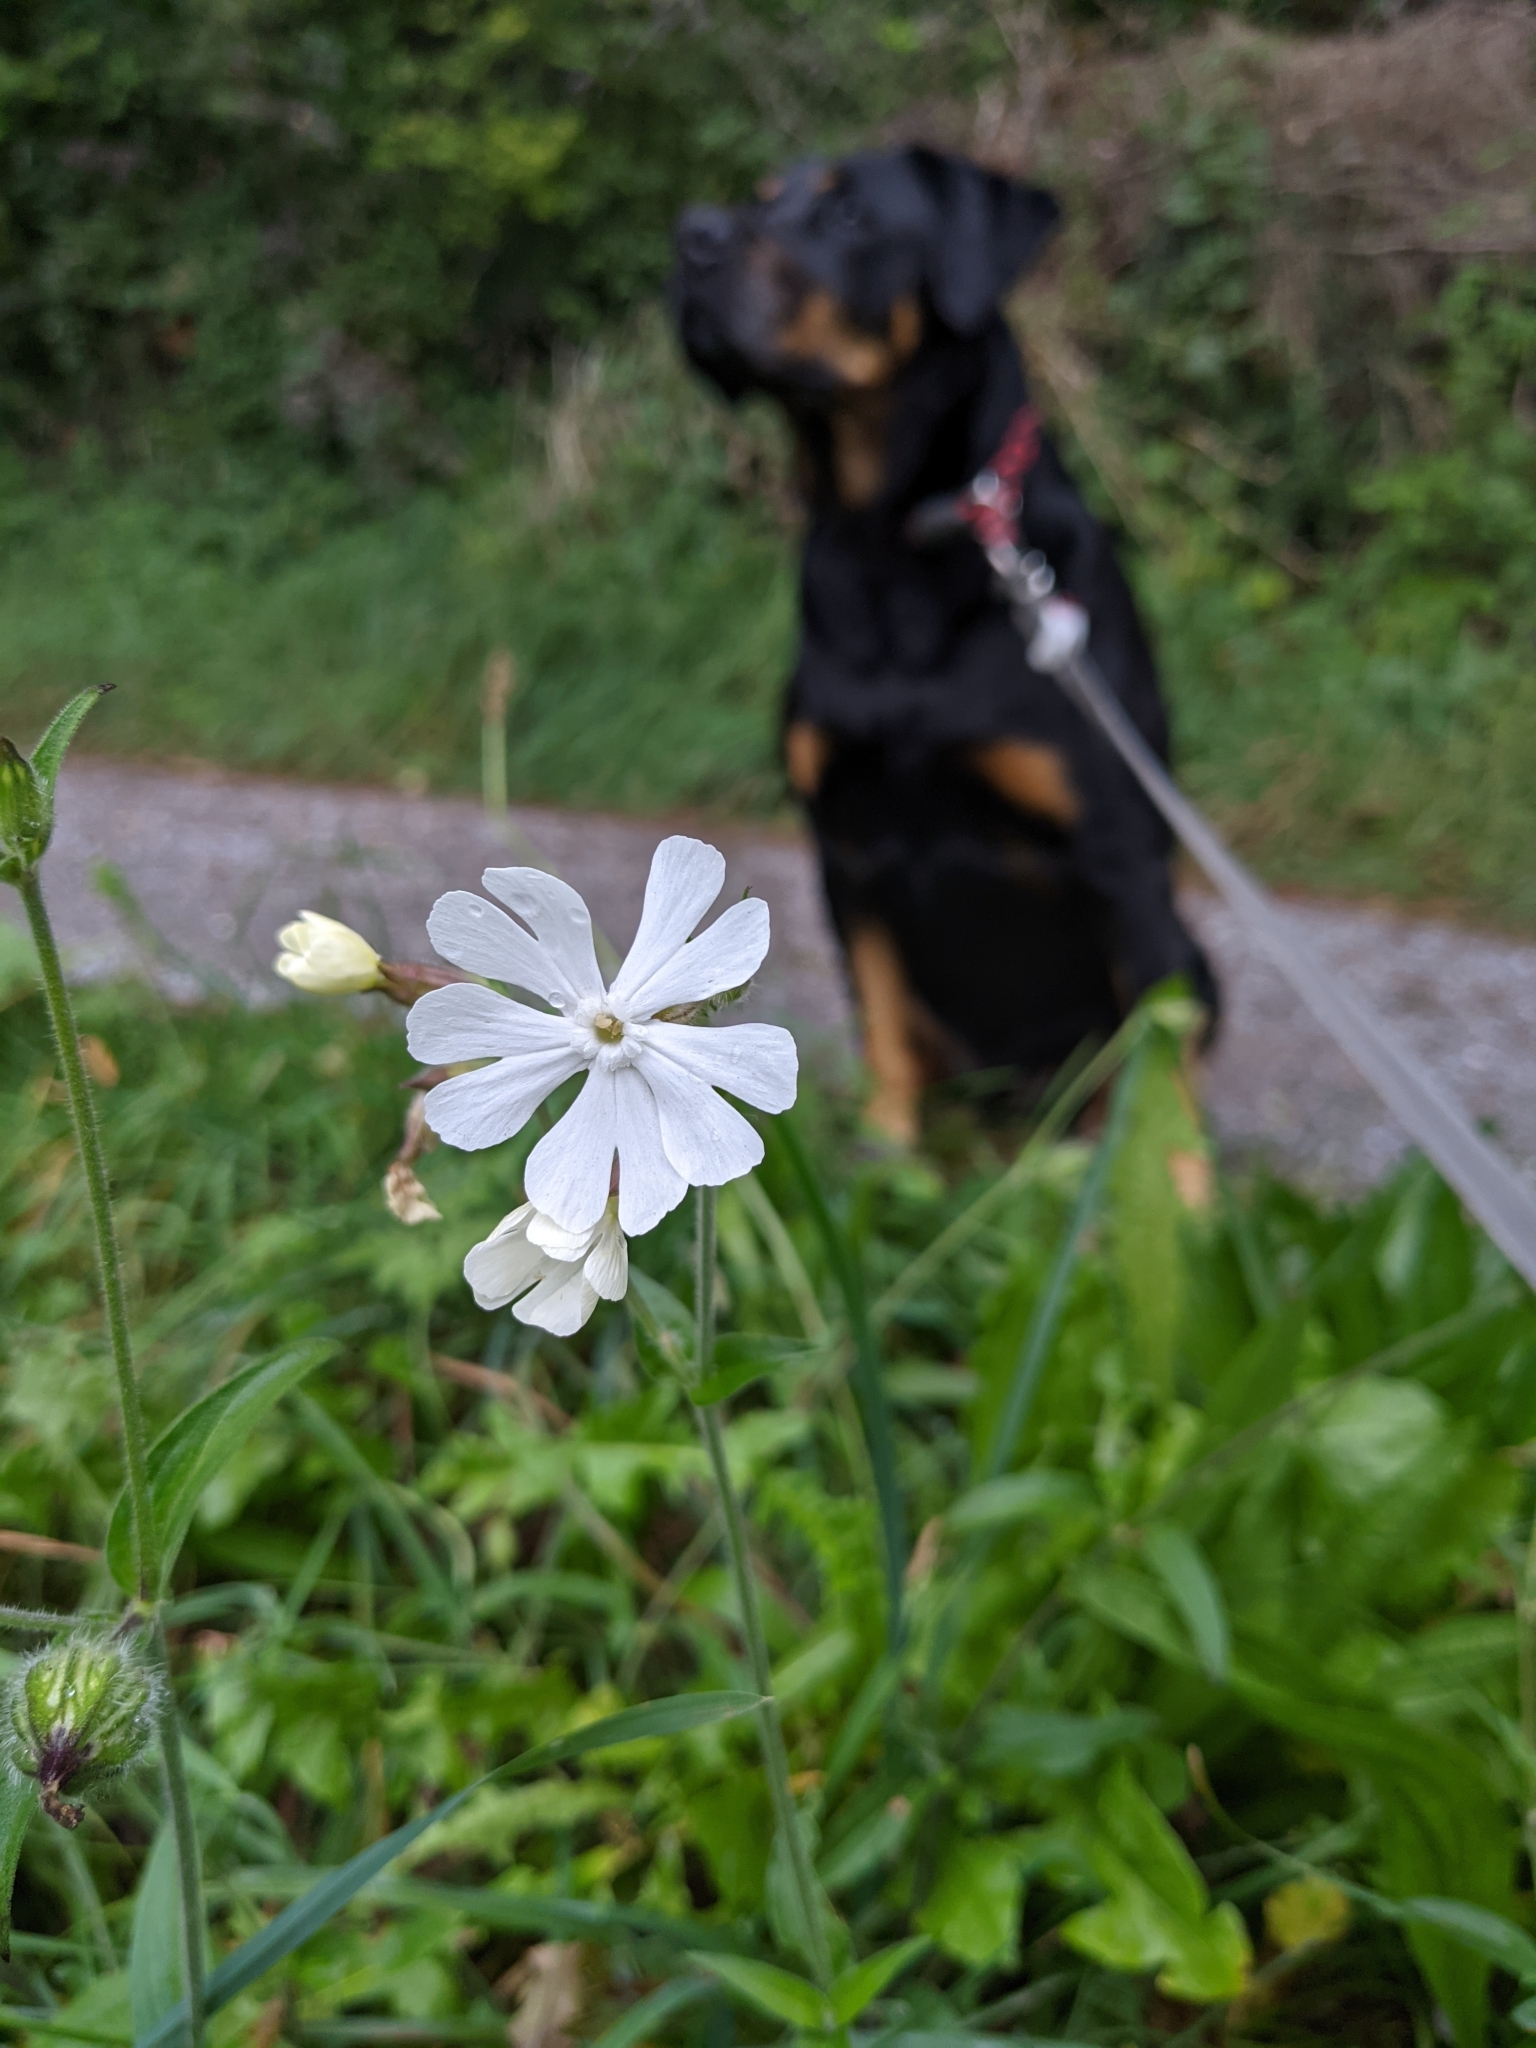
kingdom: Plantae
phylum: Tracheophyta
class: Magnoliopsida
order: Caryophyllales
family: Caryophyllaceae
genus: Silene
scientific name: Silene latifolia
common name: White campion
